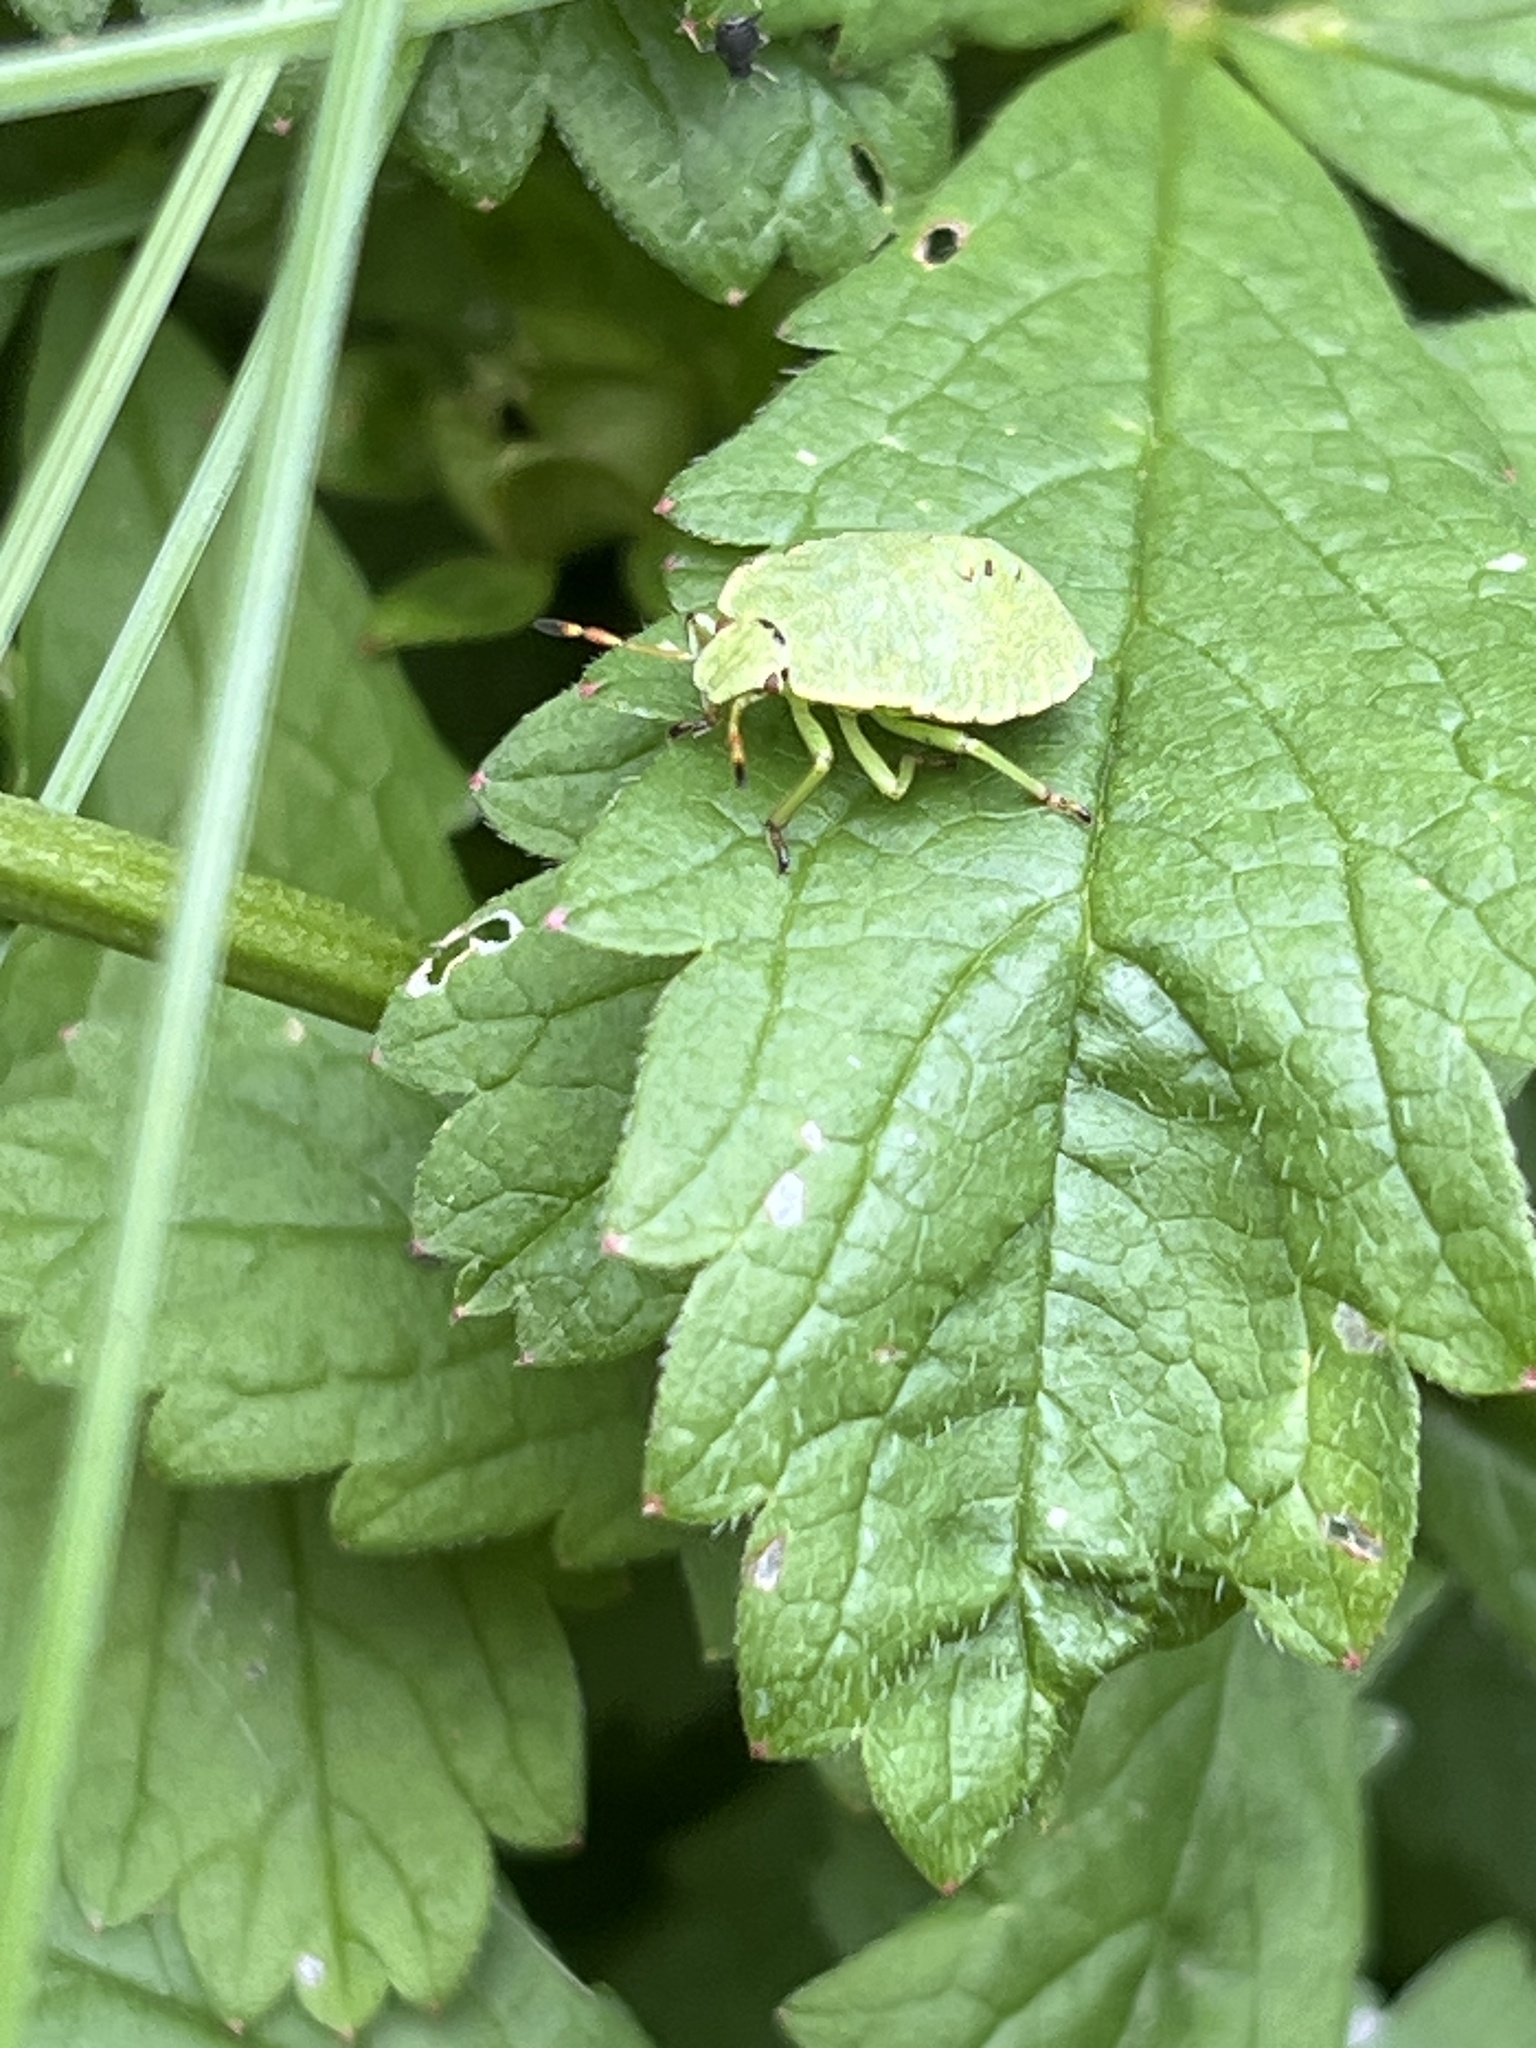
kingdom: Animalia
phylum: Arthropoda
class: Insecta
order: Hemiptera
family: Pentatomidae
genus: Palomena
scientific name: Palomena prasina
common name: Green shieldbug
